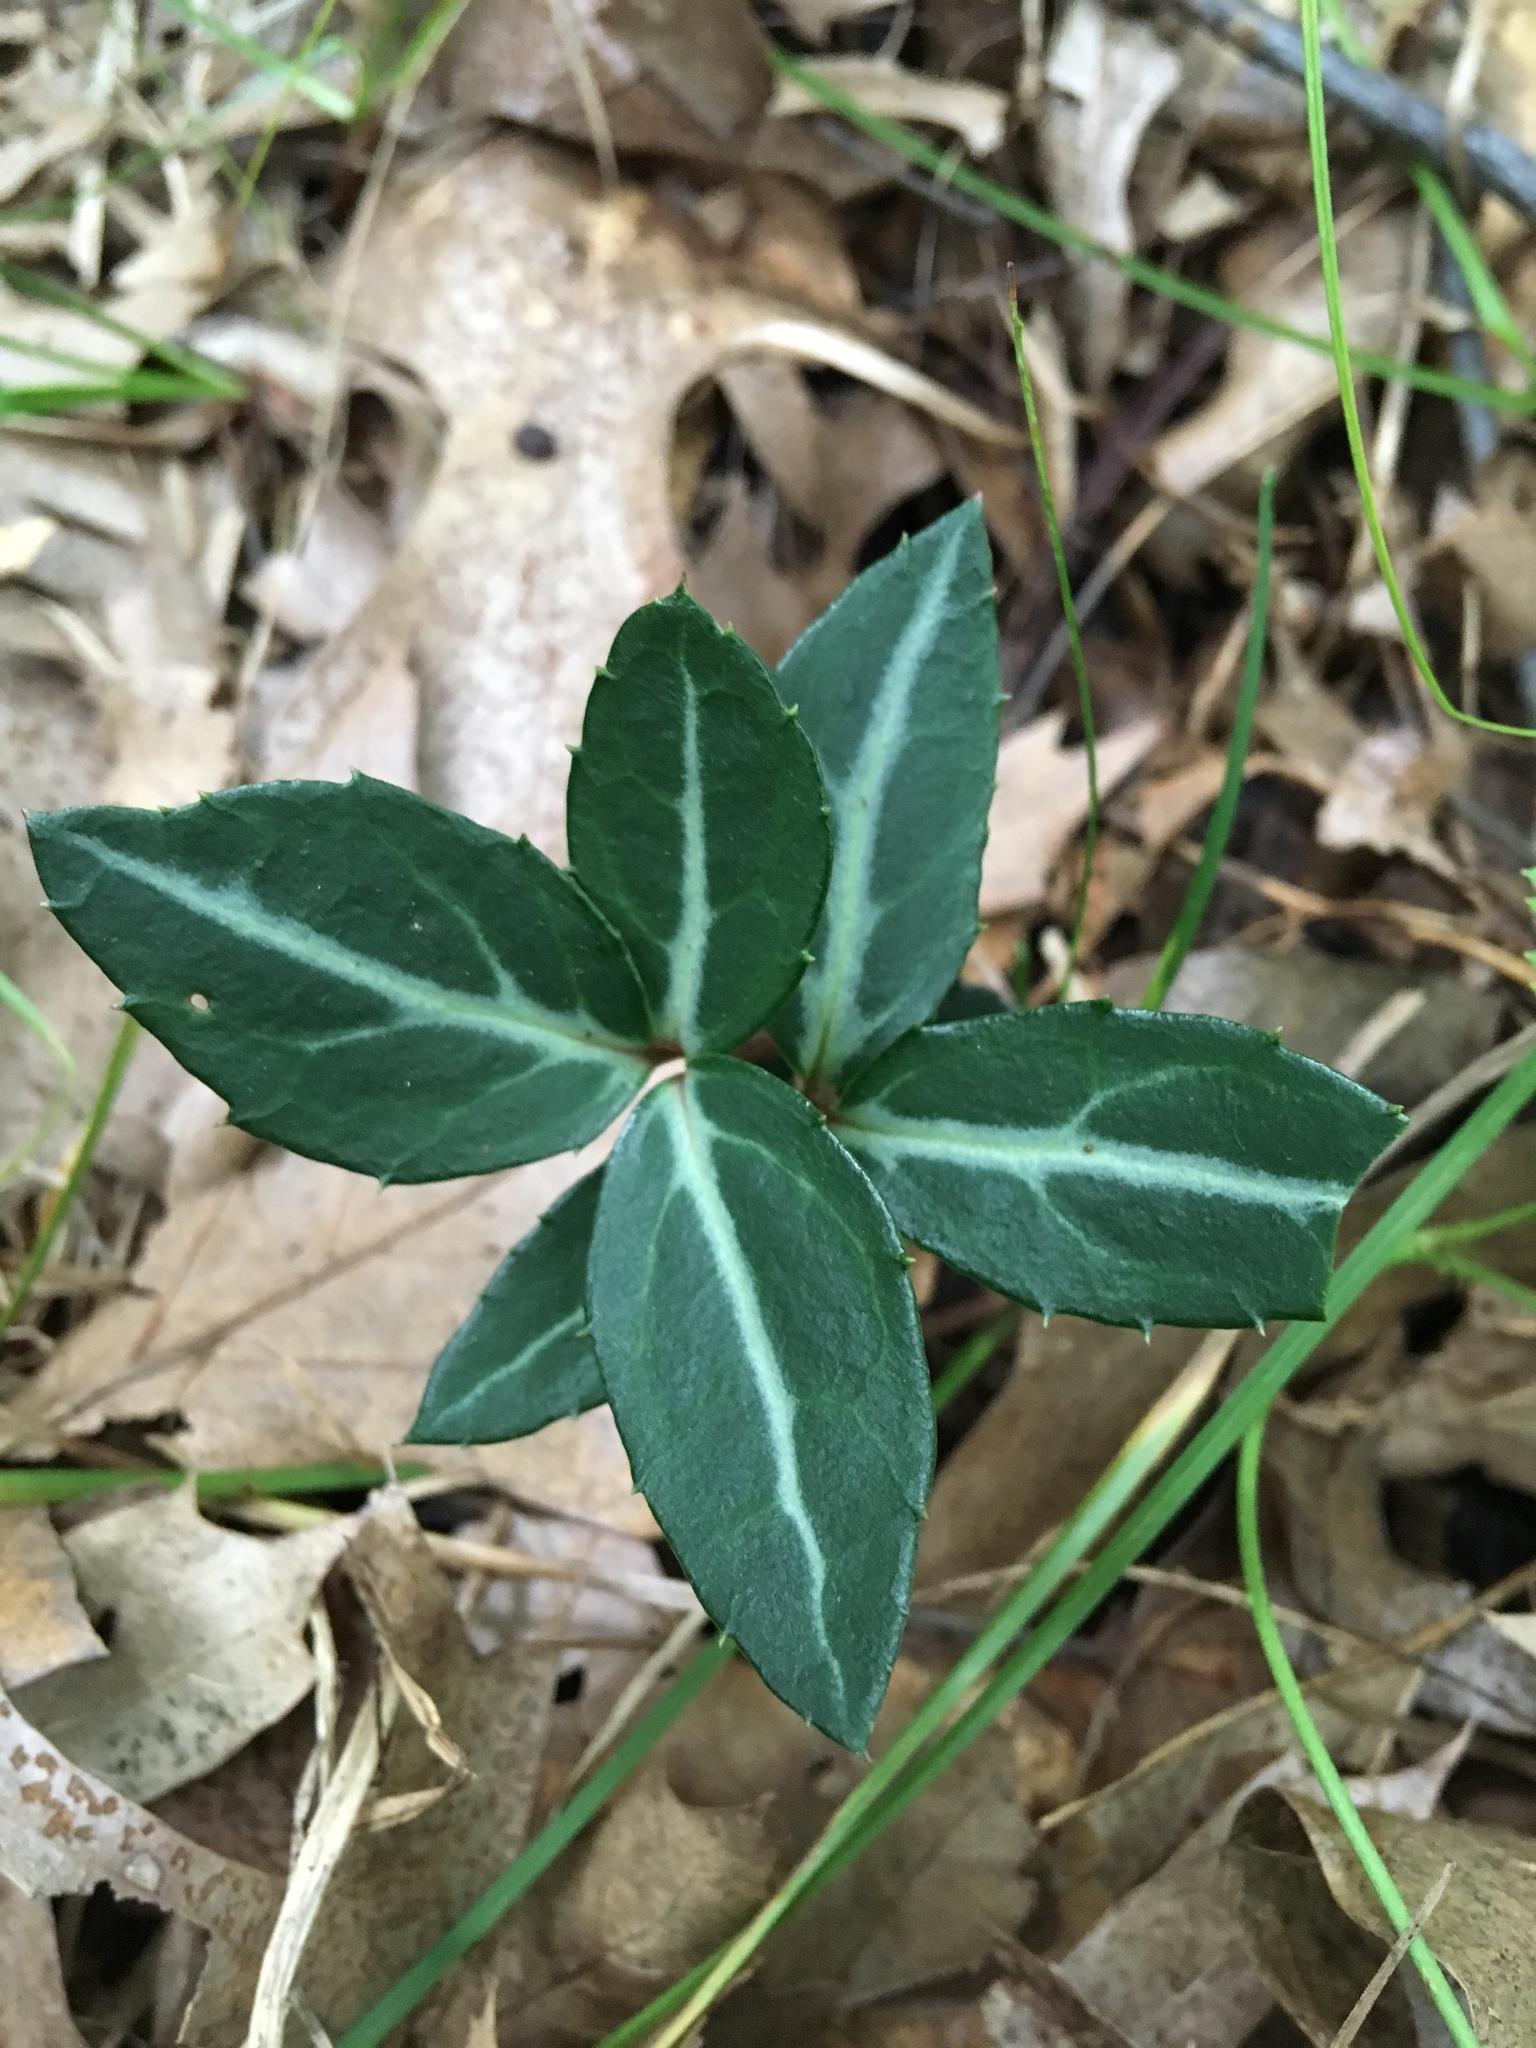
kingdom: Plantae
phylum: Tracheophyta
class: Magnoliopsida
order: Ericales
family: Ericaceae
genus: Chimaphila
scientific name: Chimaphila maculata
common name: Spotted pipsissewa
